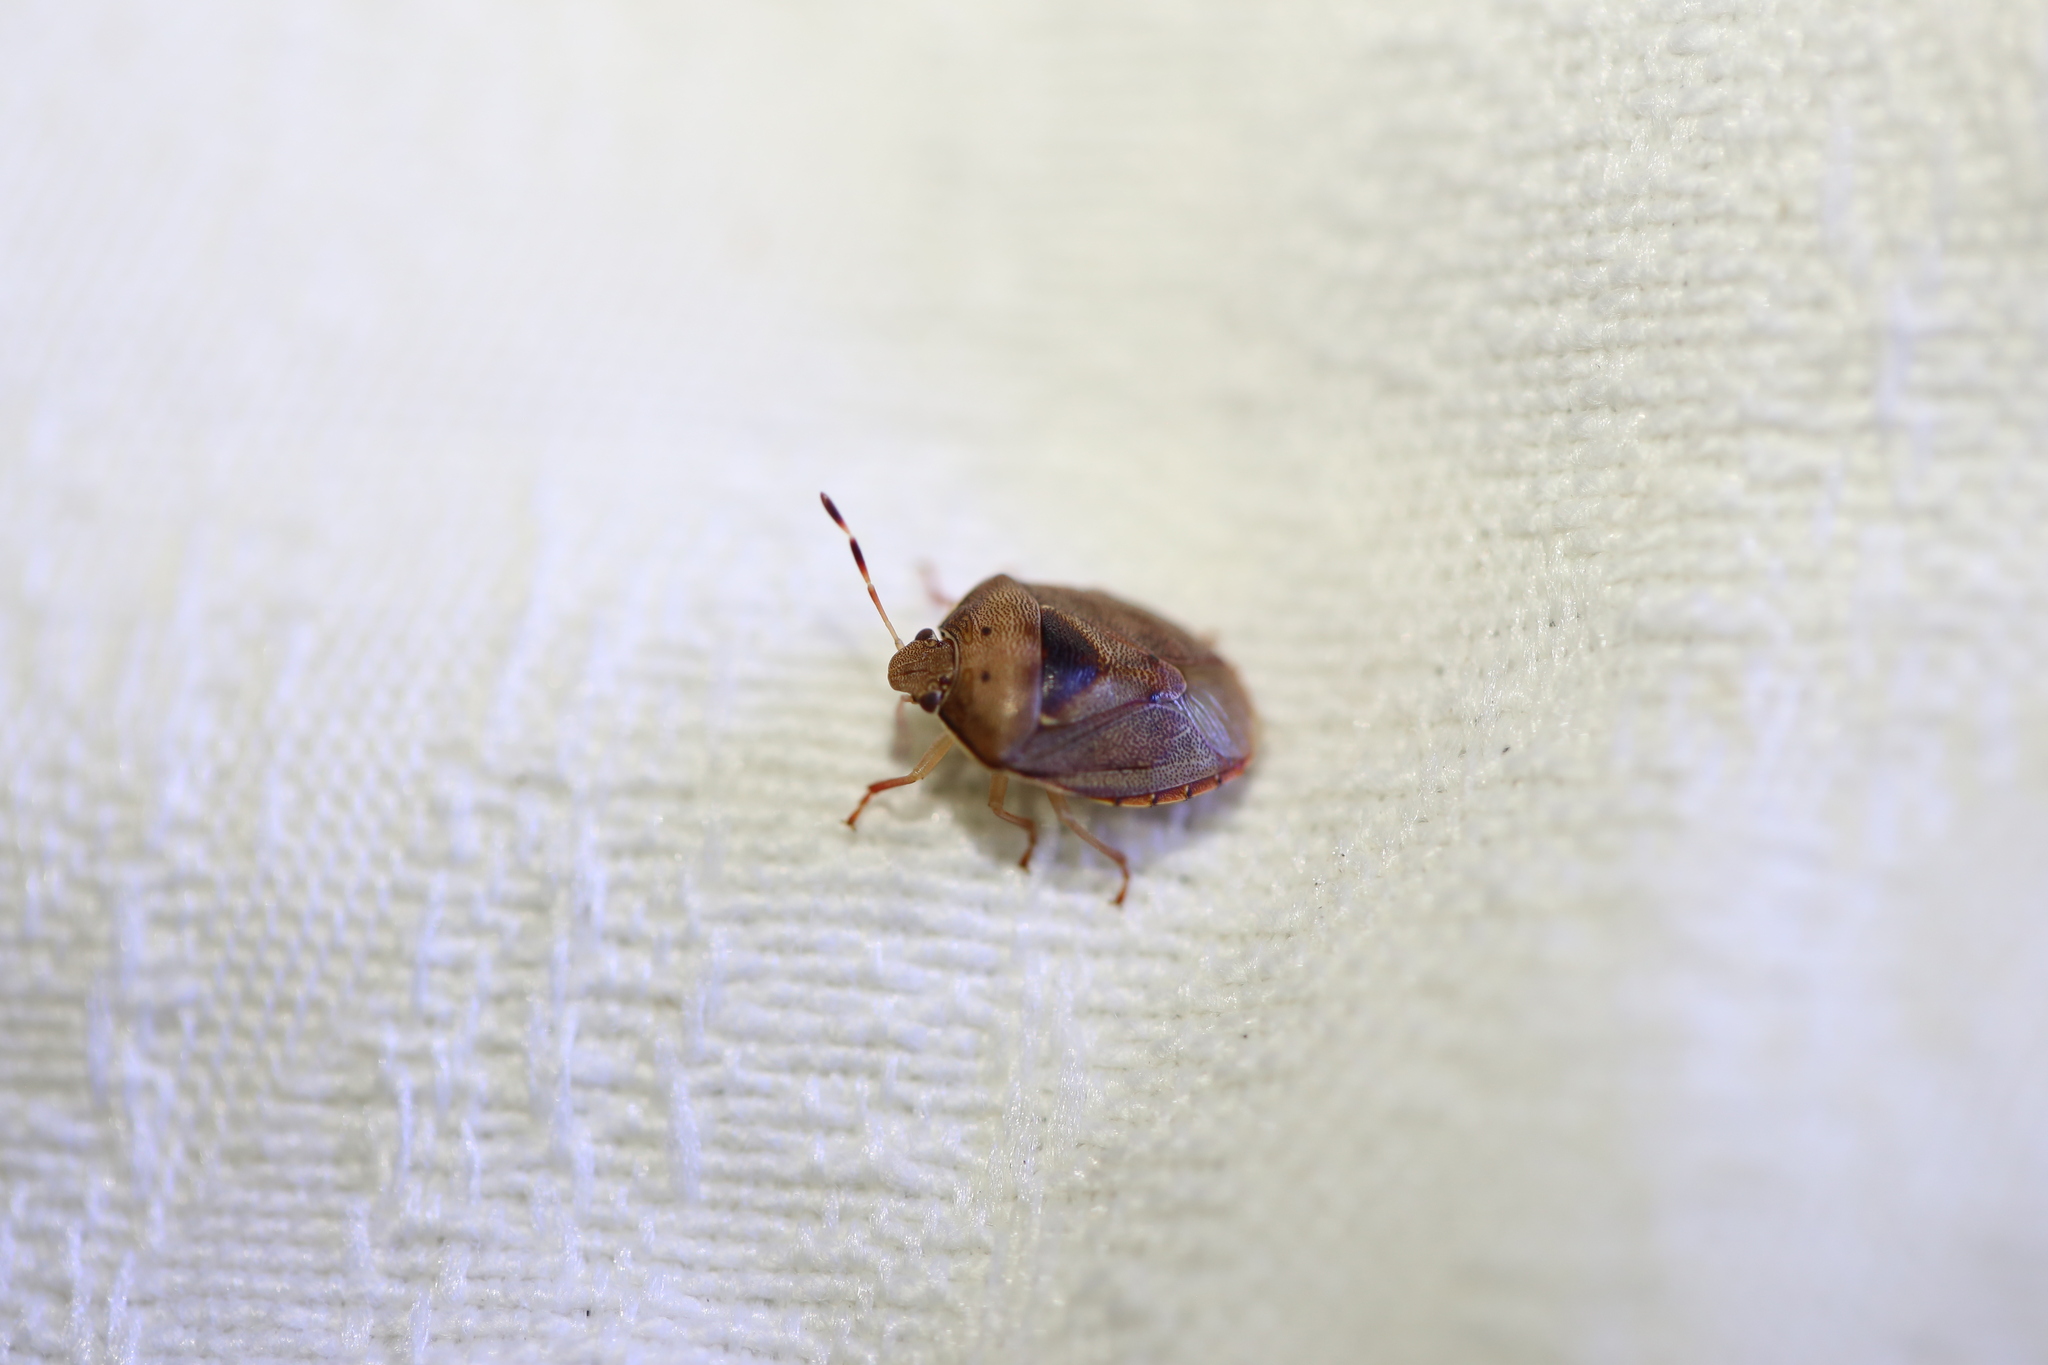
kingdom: Animalia
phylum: Arthropoda
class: Insecta
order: Hemiptera
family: Pentatomidae
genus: Menida
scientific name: Menida
